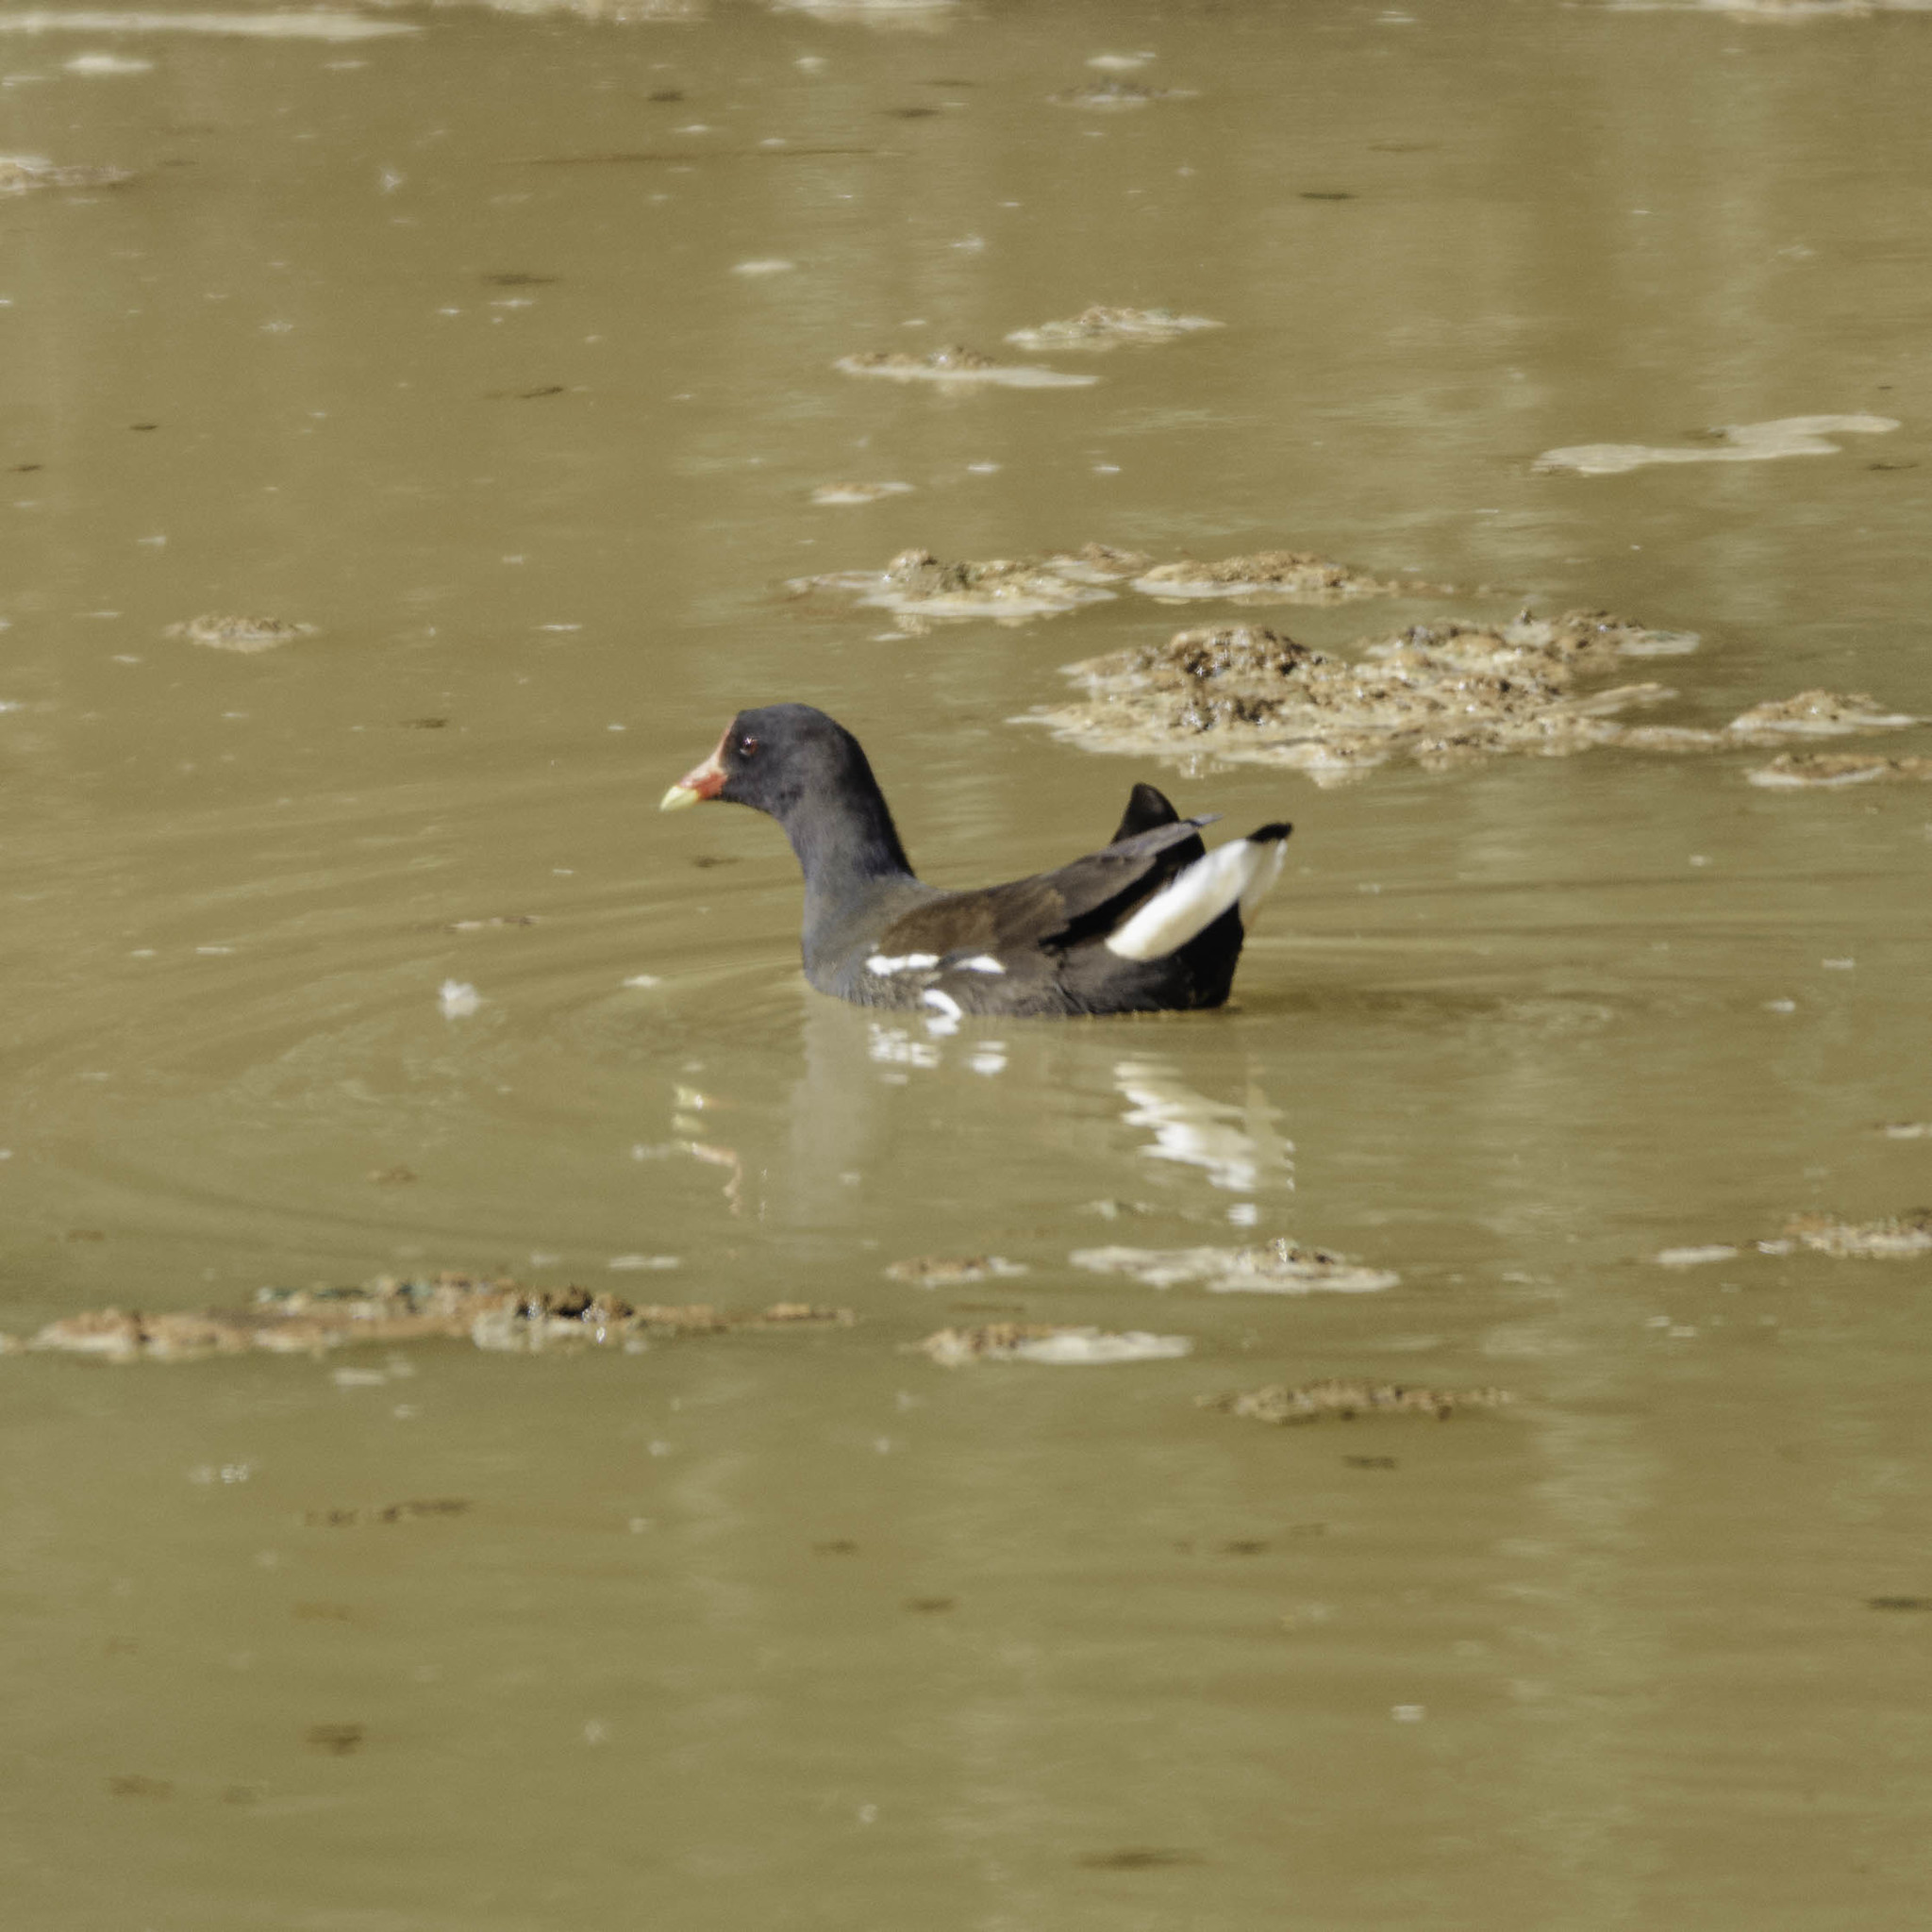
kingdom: Animalia
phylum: Chordata
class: Aves
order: Gruiformes
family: Rallidae
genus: Gallinula
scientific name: Gallinula chloropus
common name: Common moorhen
